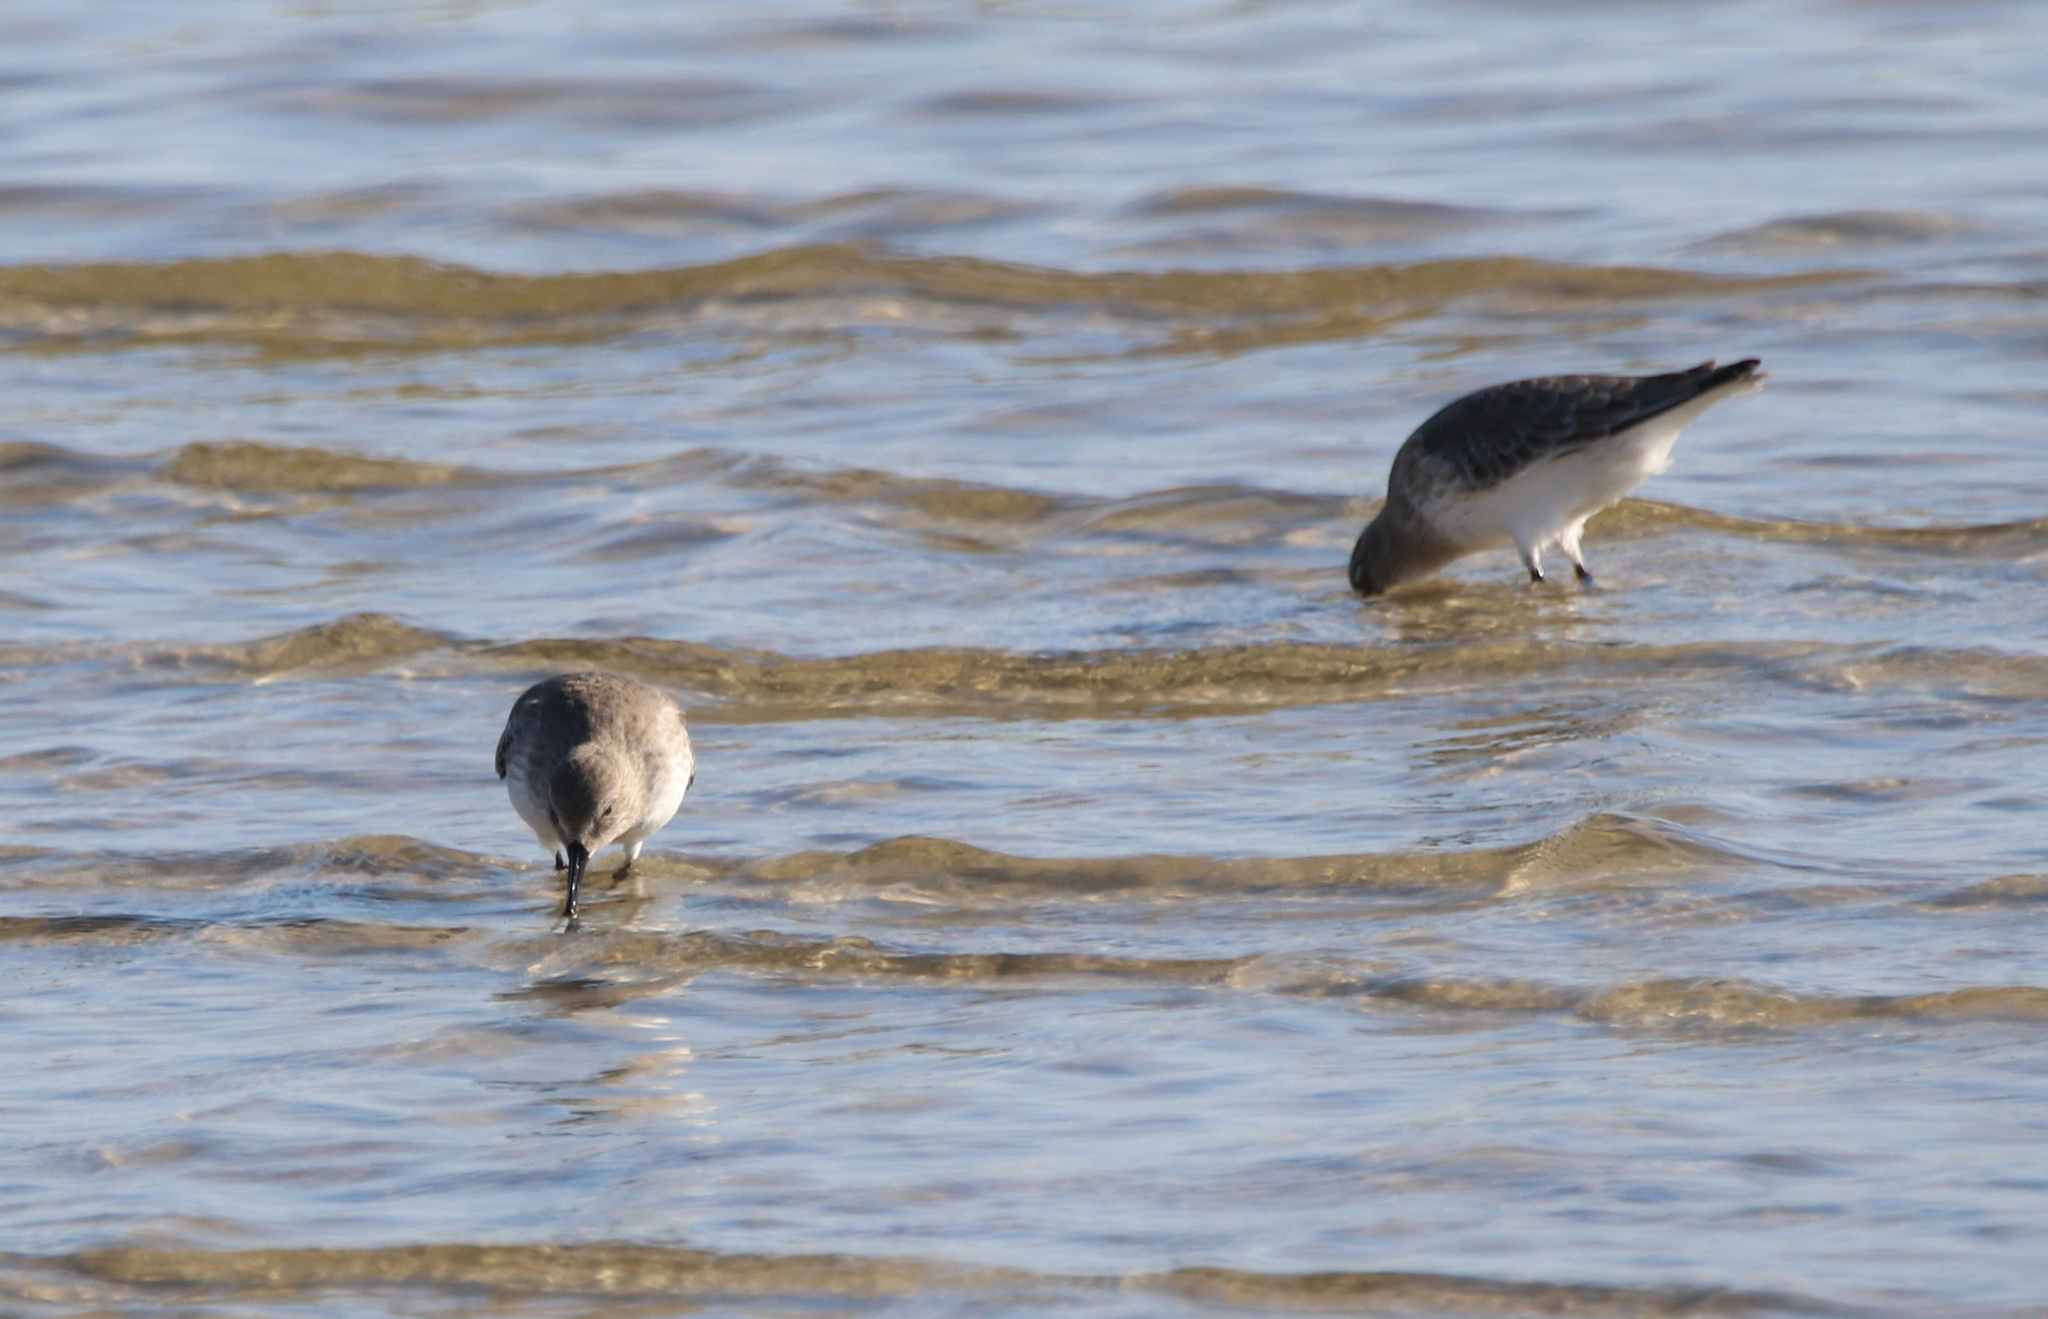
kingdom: Animalia
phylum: Chordata
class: Aves
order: Charadriiformes
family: Scolopacidae
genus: Calidris
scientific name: Calidris alpina
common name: Dunlin
